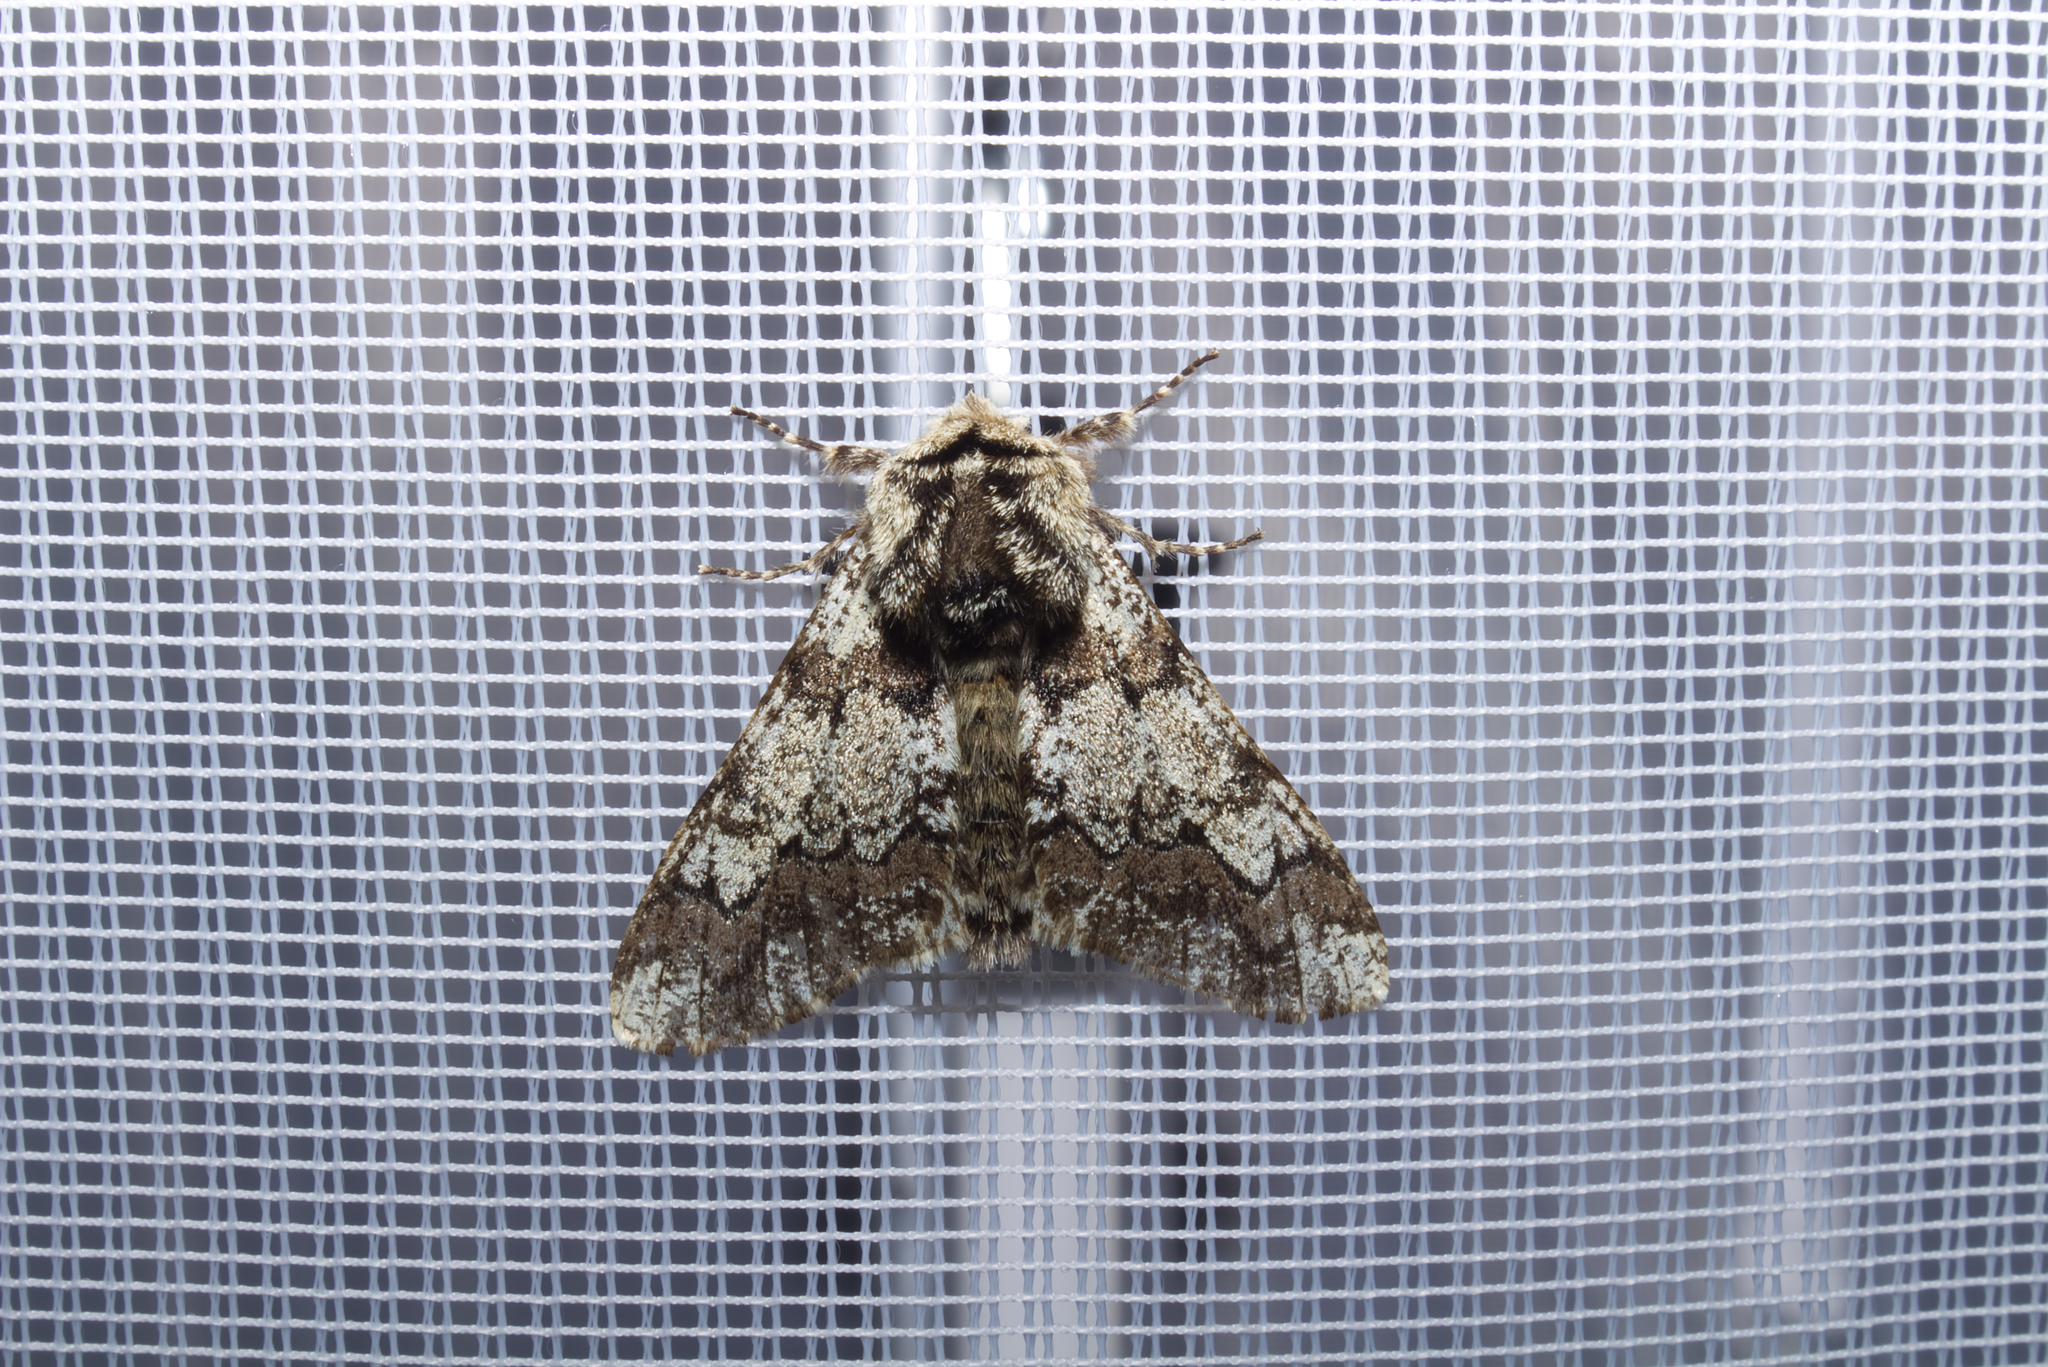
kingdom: Animalia
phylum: Arthropoda
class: Insecta
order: Lepidoptera
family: Geometridae
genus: Biston
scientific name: Biston strataria
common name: Oak beauty
